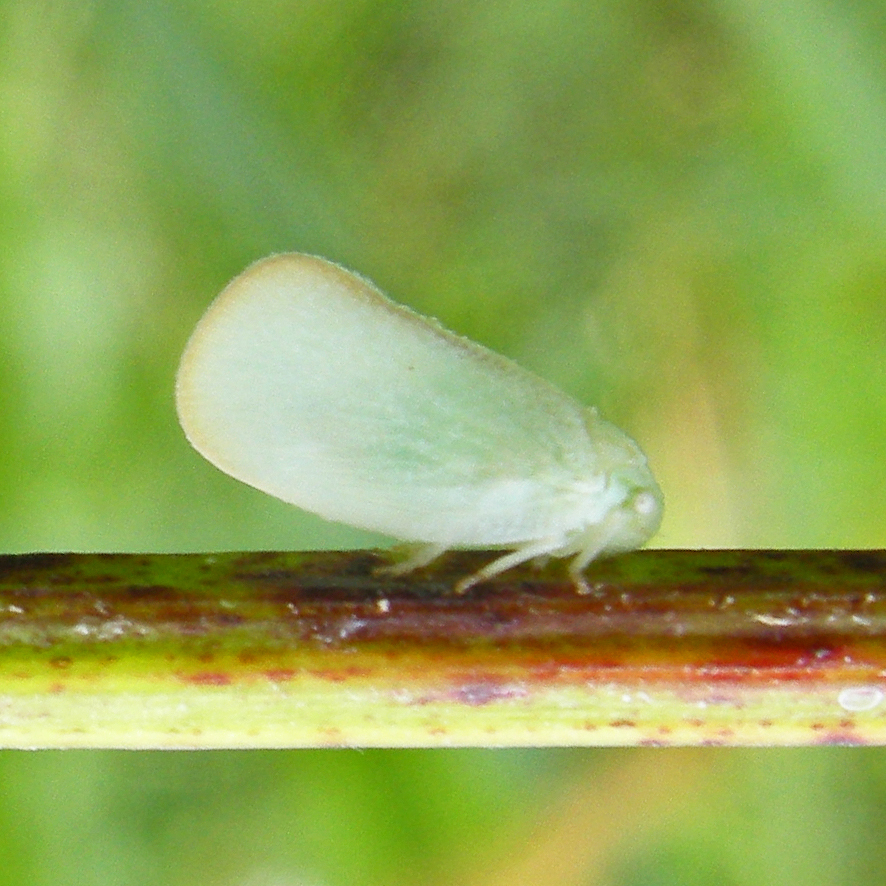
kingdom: Animalia
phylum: Arthropoda
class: Insecta
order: Hemiptera
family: Flatidae
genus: Ormenoides
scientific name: Ormenoides venusta
